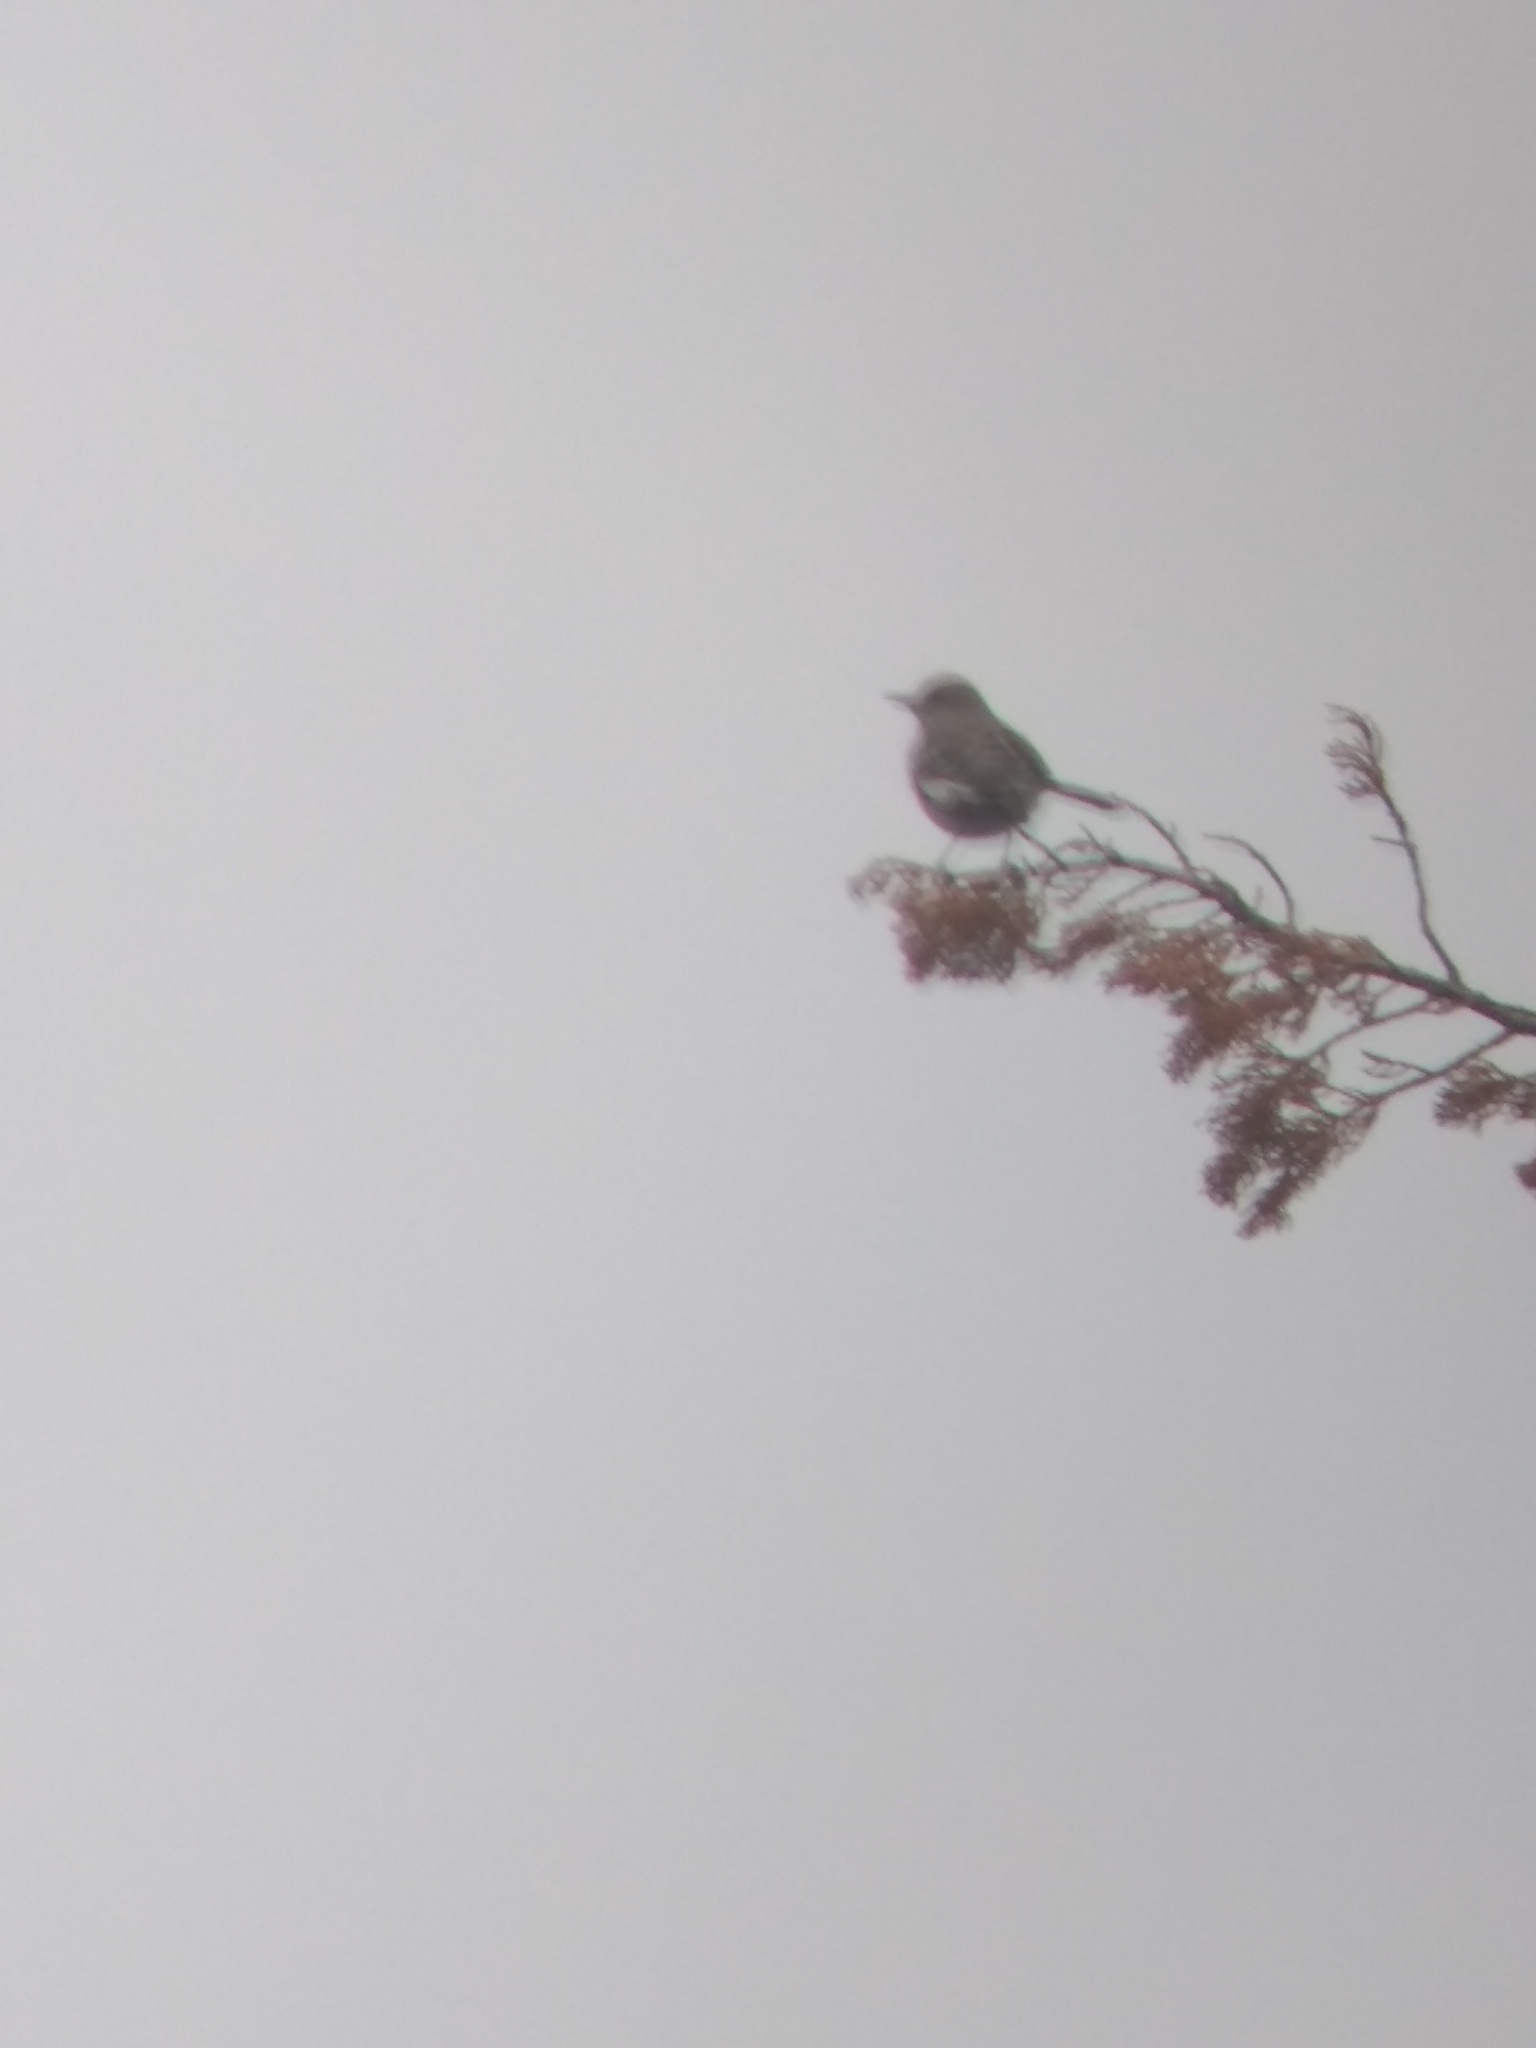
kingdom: Animalia
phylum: Chordata
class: Aves
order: Passeriformes
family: Mimidae
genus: Mimus
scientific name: Mimus polyglottos
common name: Northern mockingbird
